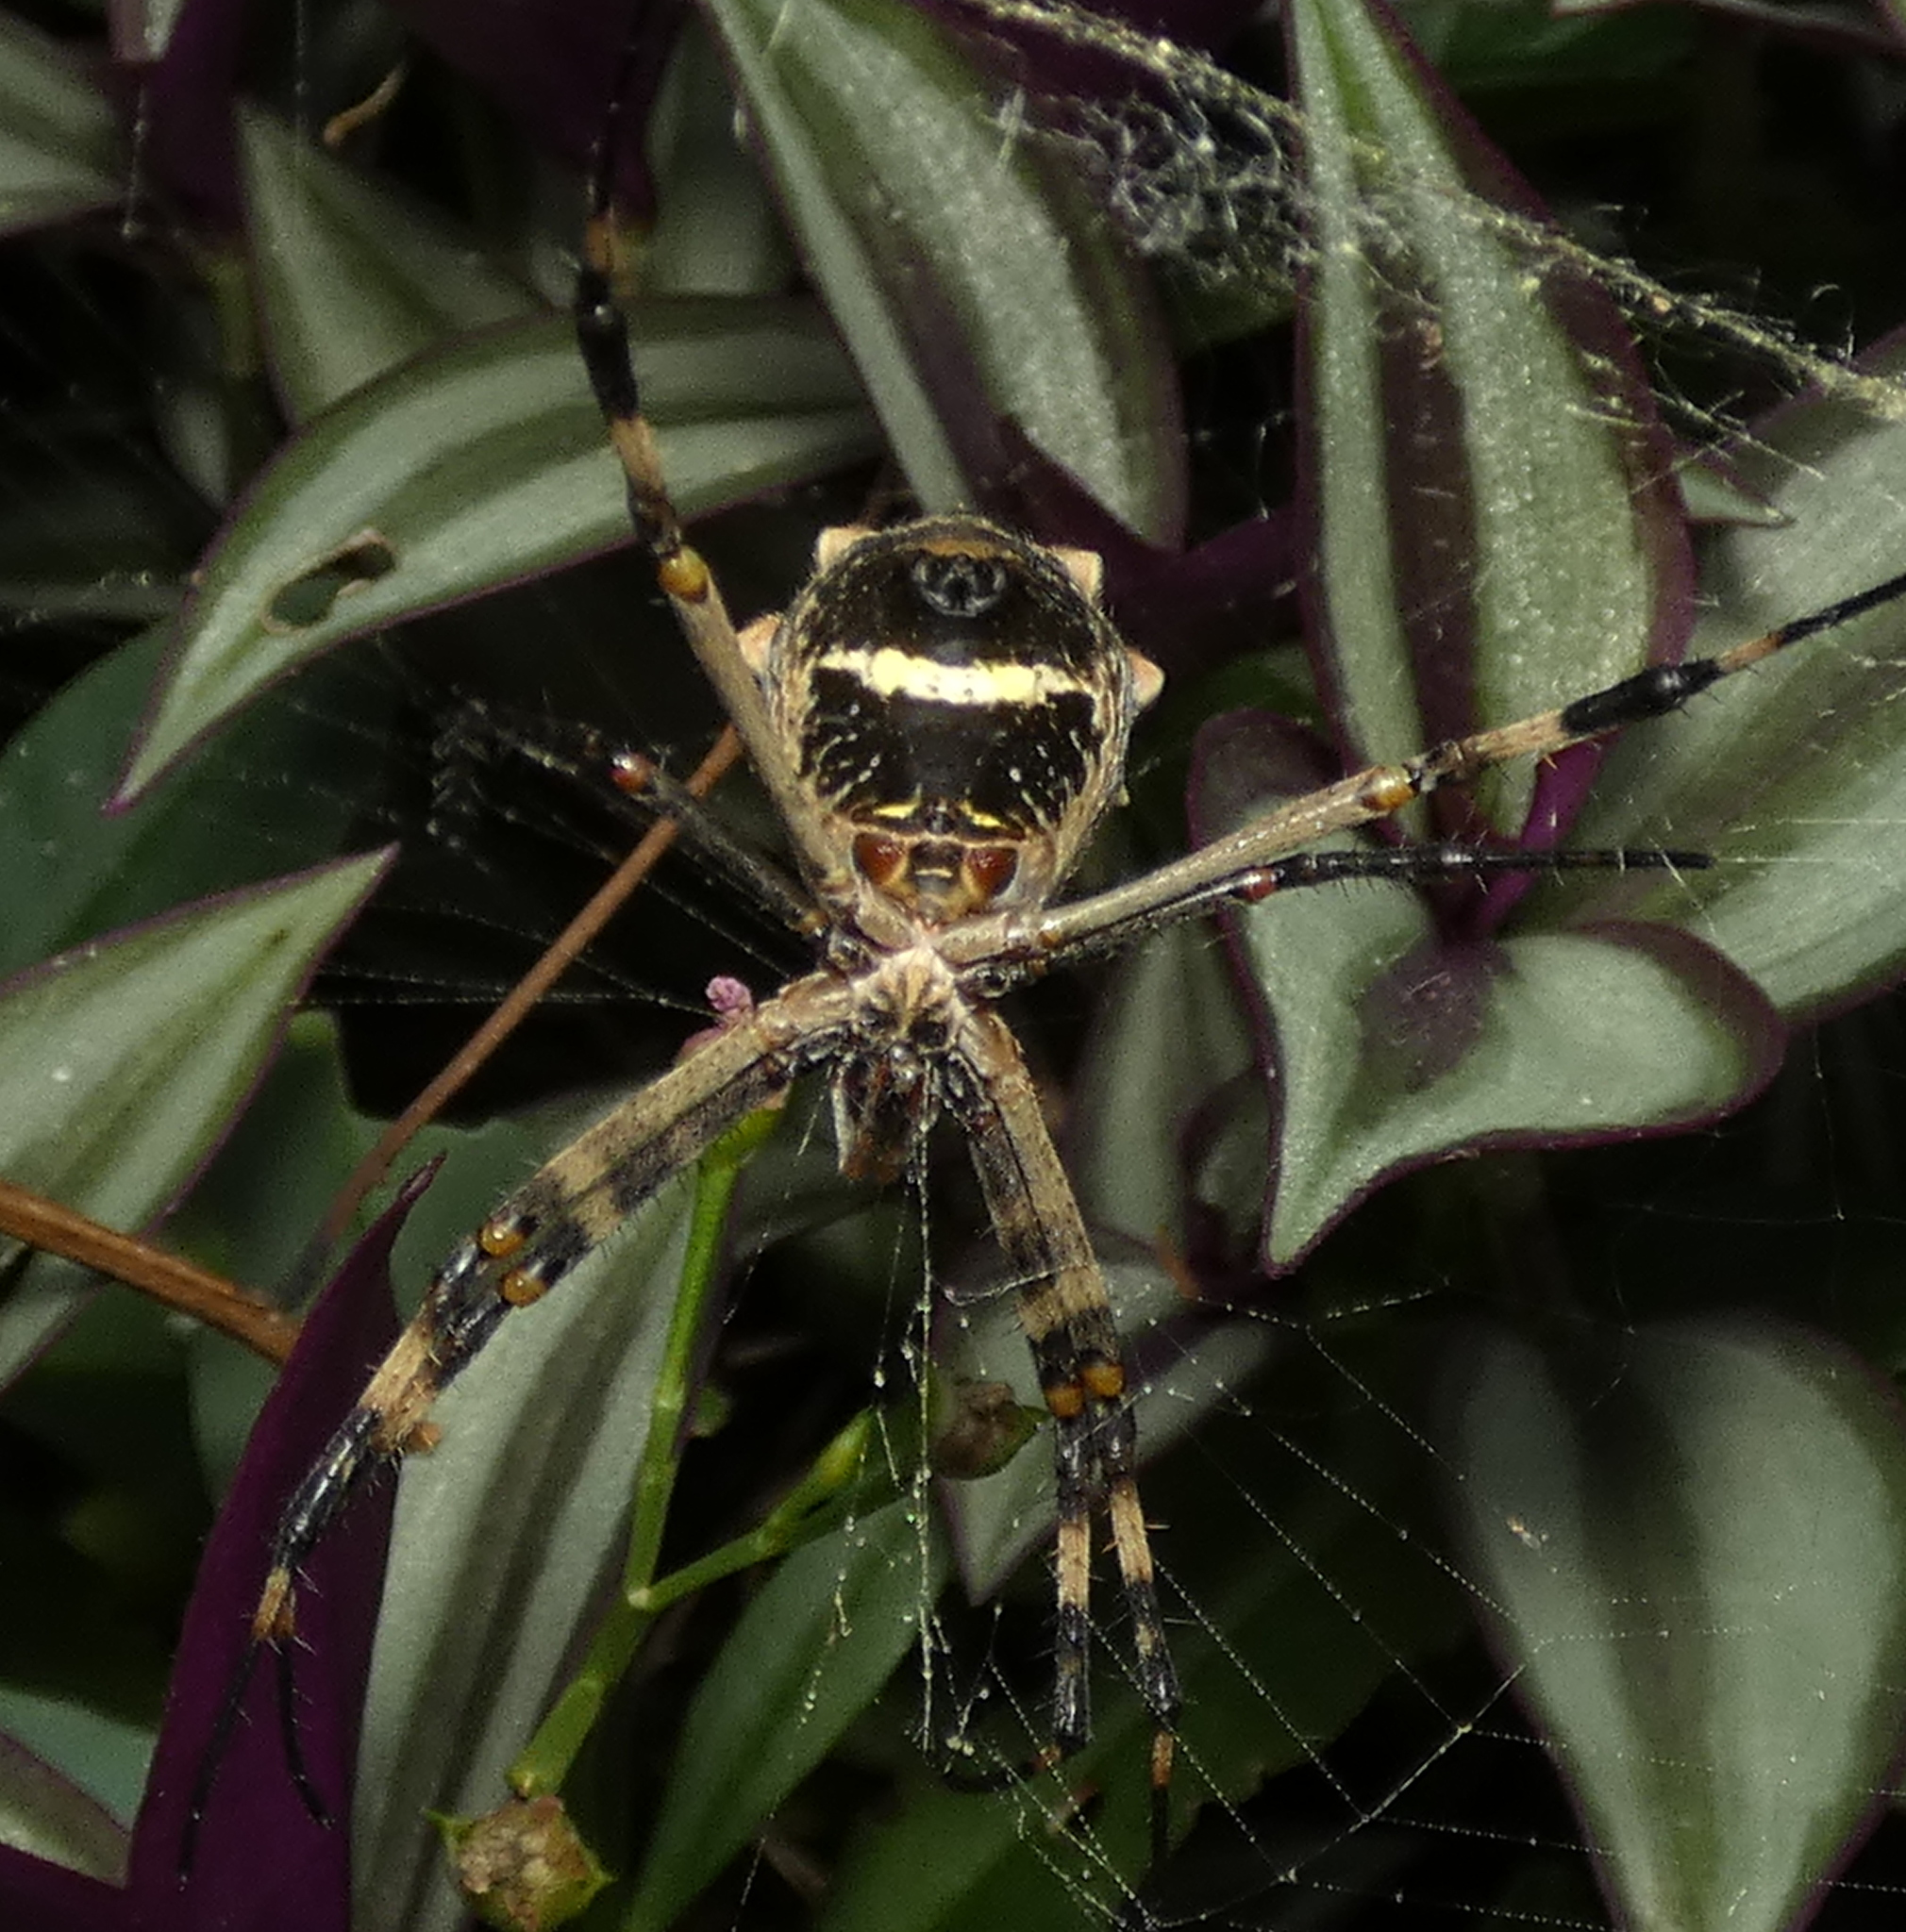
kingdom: Animalia
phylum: Arthropoda
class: Arachnida
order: Araneae
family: Araneidae
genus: Argiope
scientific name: Argiope argentata
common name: Orb weavers
